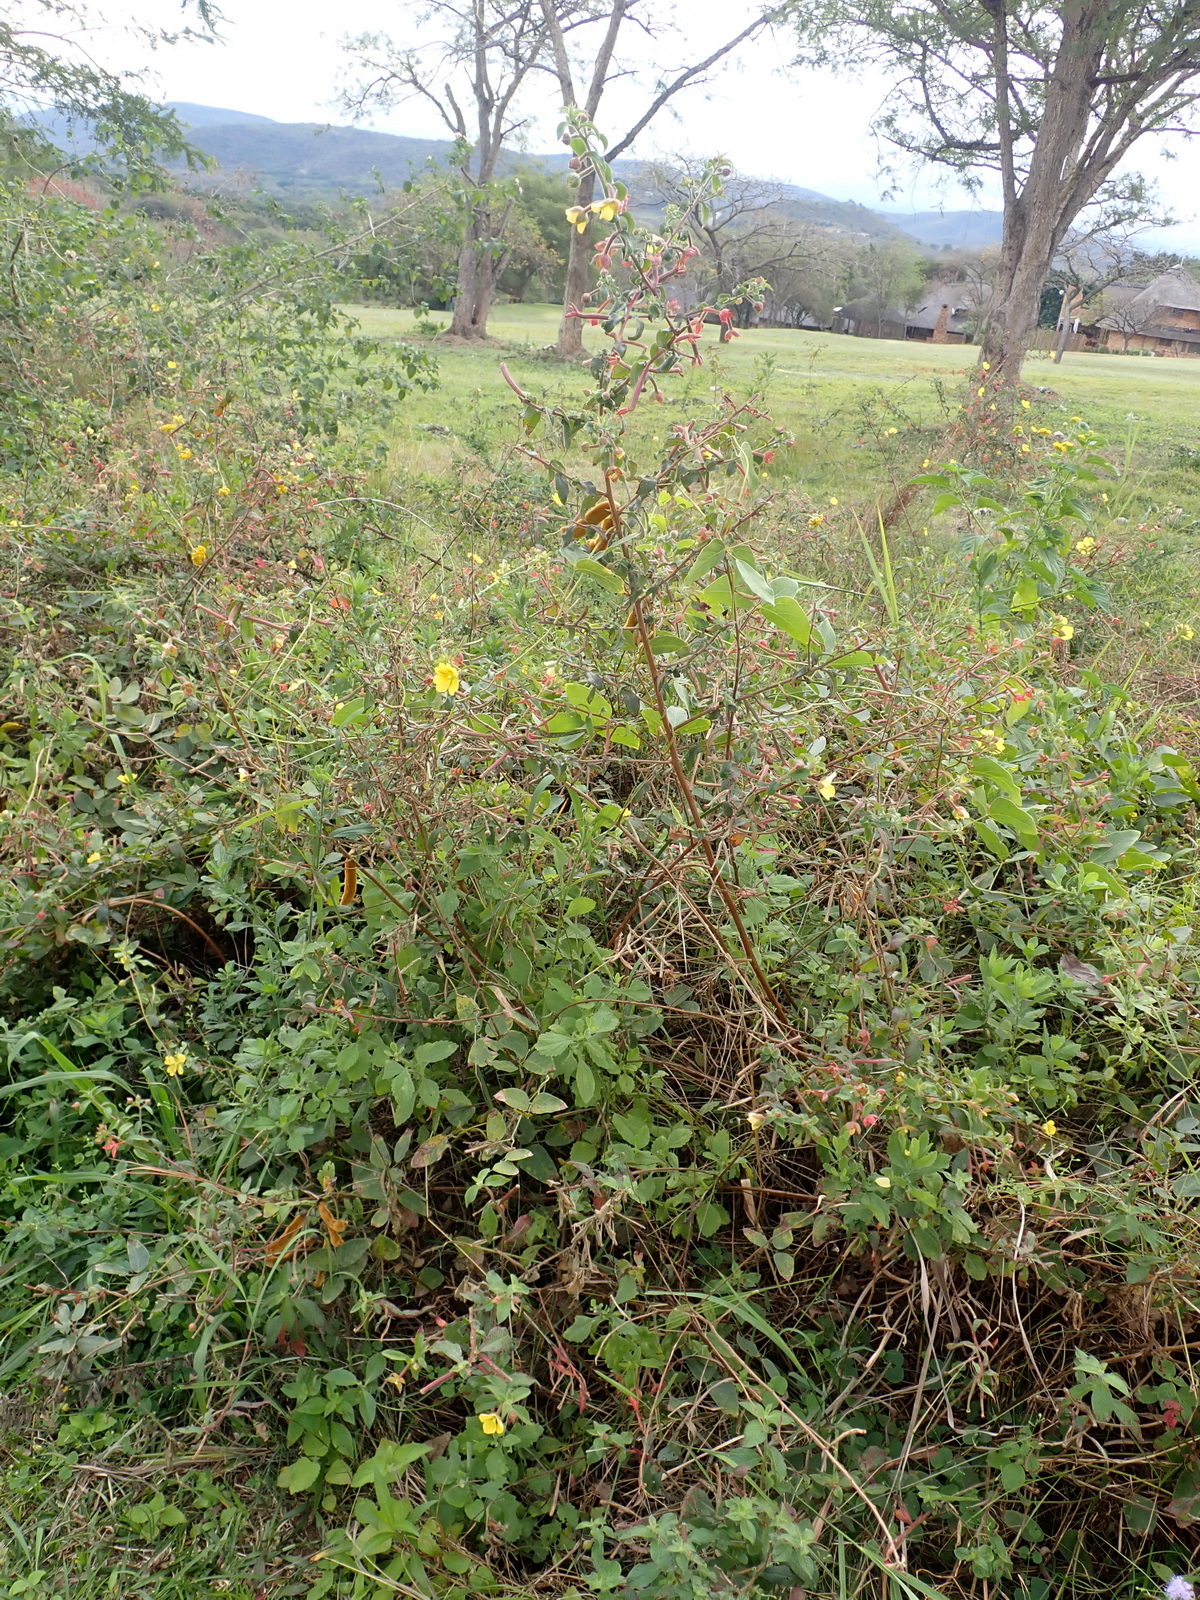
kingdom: Plantae
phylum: Tracheophyta
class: Magnoliopsida
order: Myrtales
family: Onagraceae
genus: Ludwigia
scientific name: Ludwigia octovalvis
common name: Water-primrose
